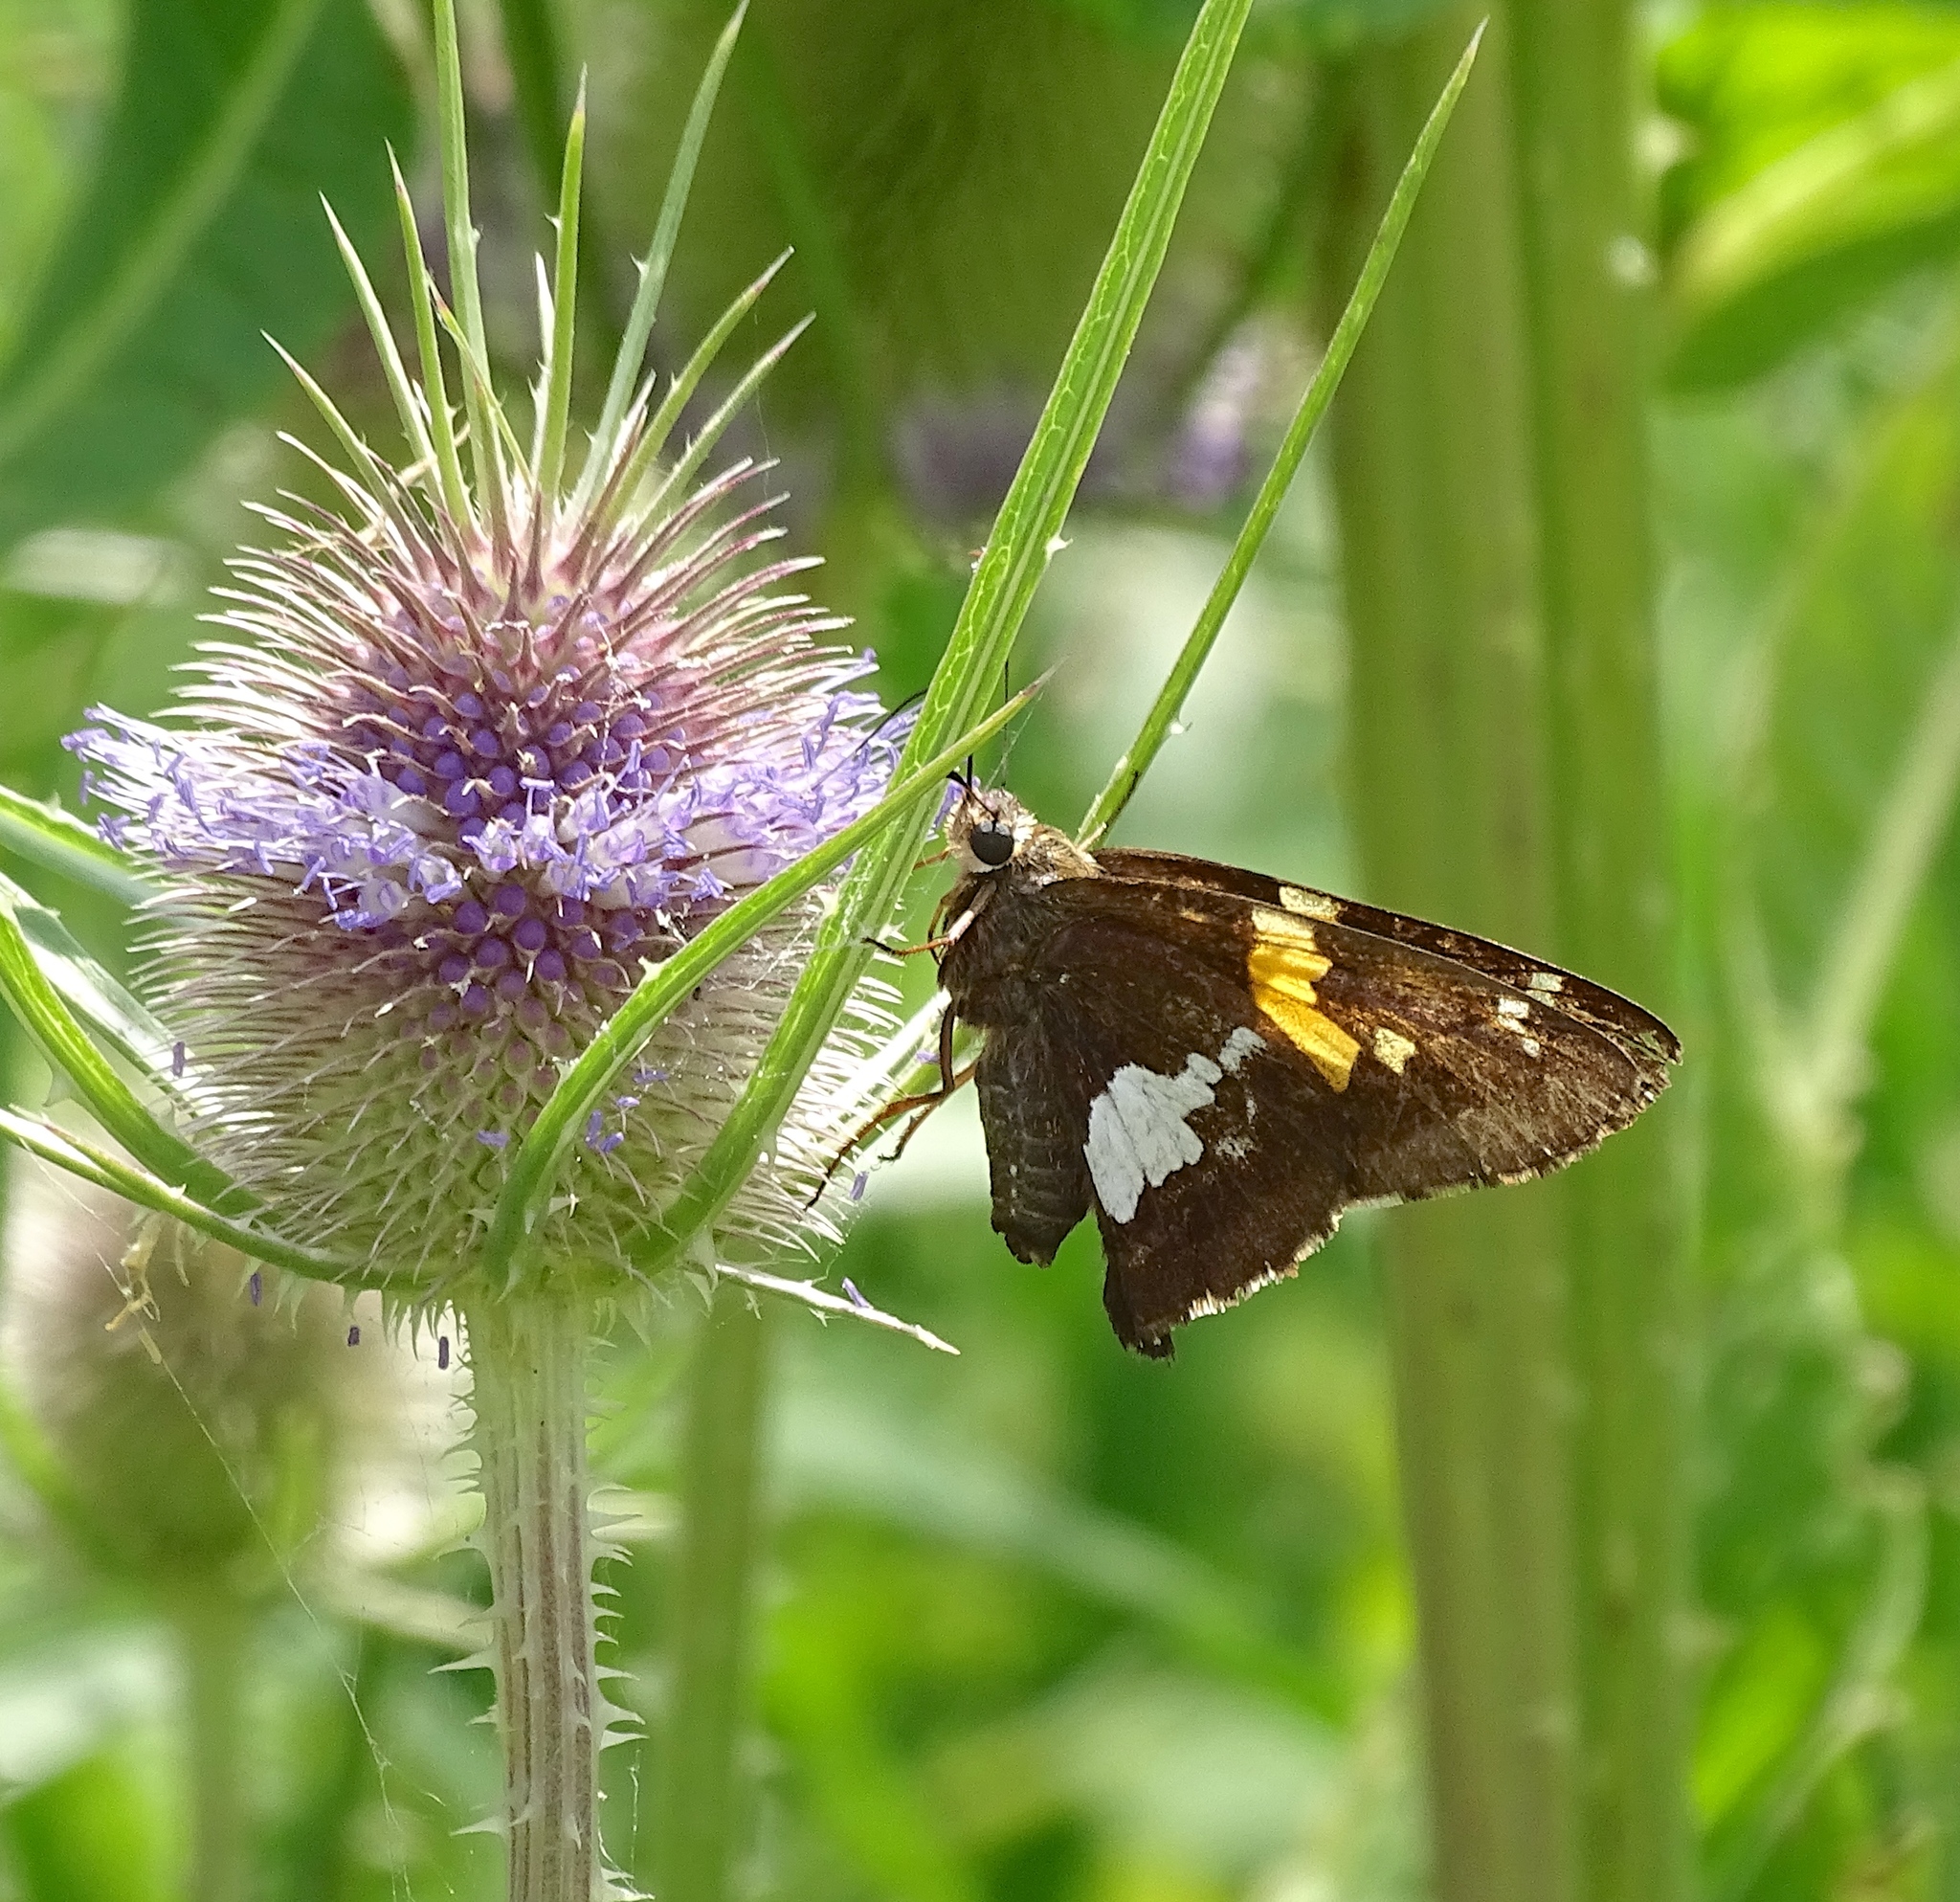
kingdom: Animalia
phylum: Arthropoda
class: Insecta
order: Lepidoptera
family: Hesperiidae
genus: Epargyreus
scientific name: Epargyreus clarus
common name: Silver-spotted skipper
